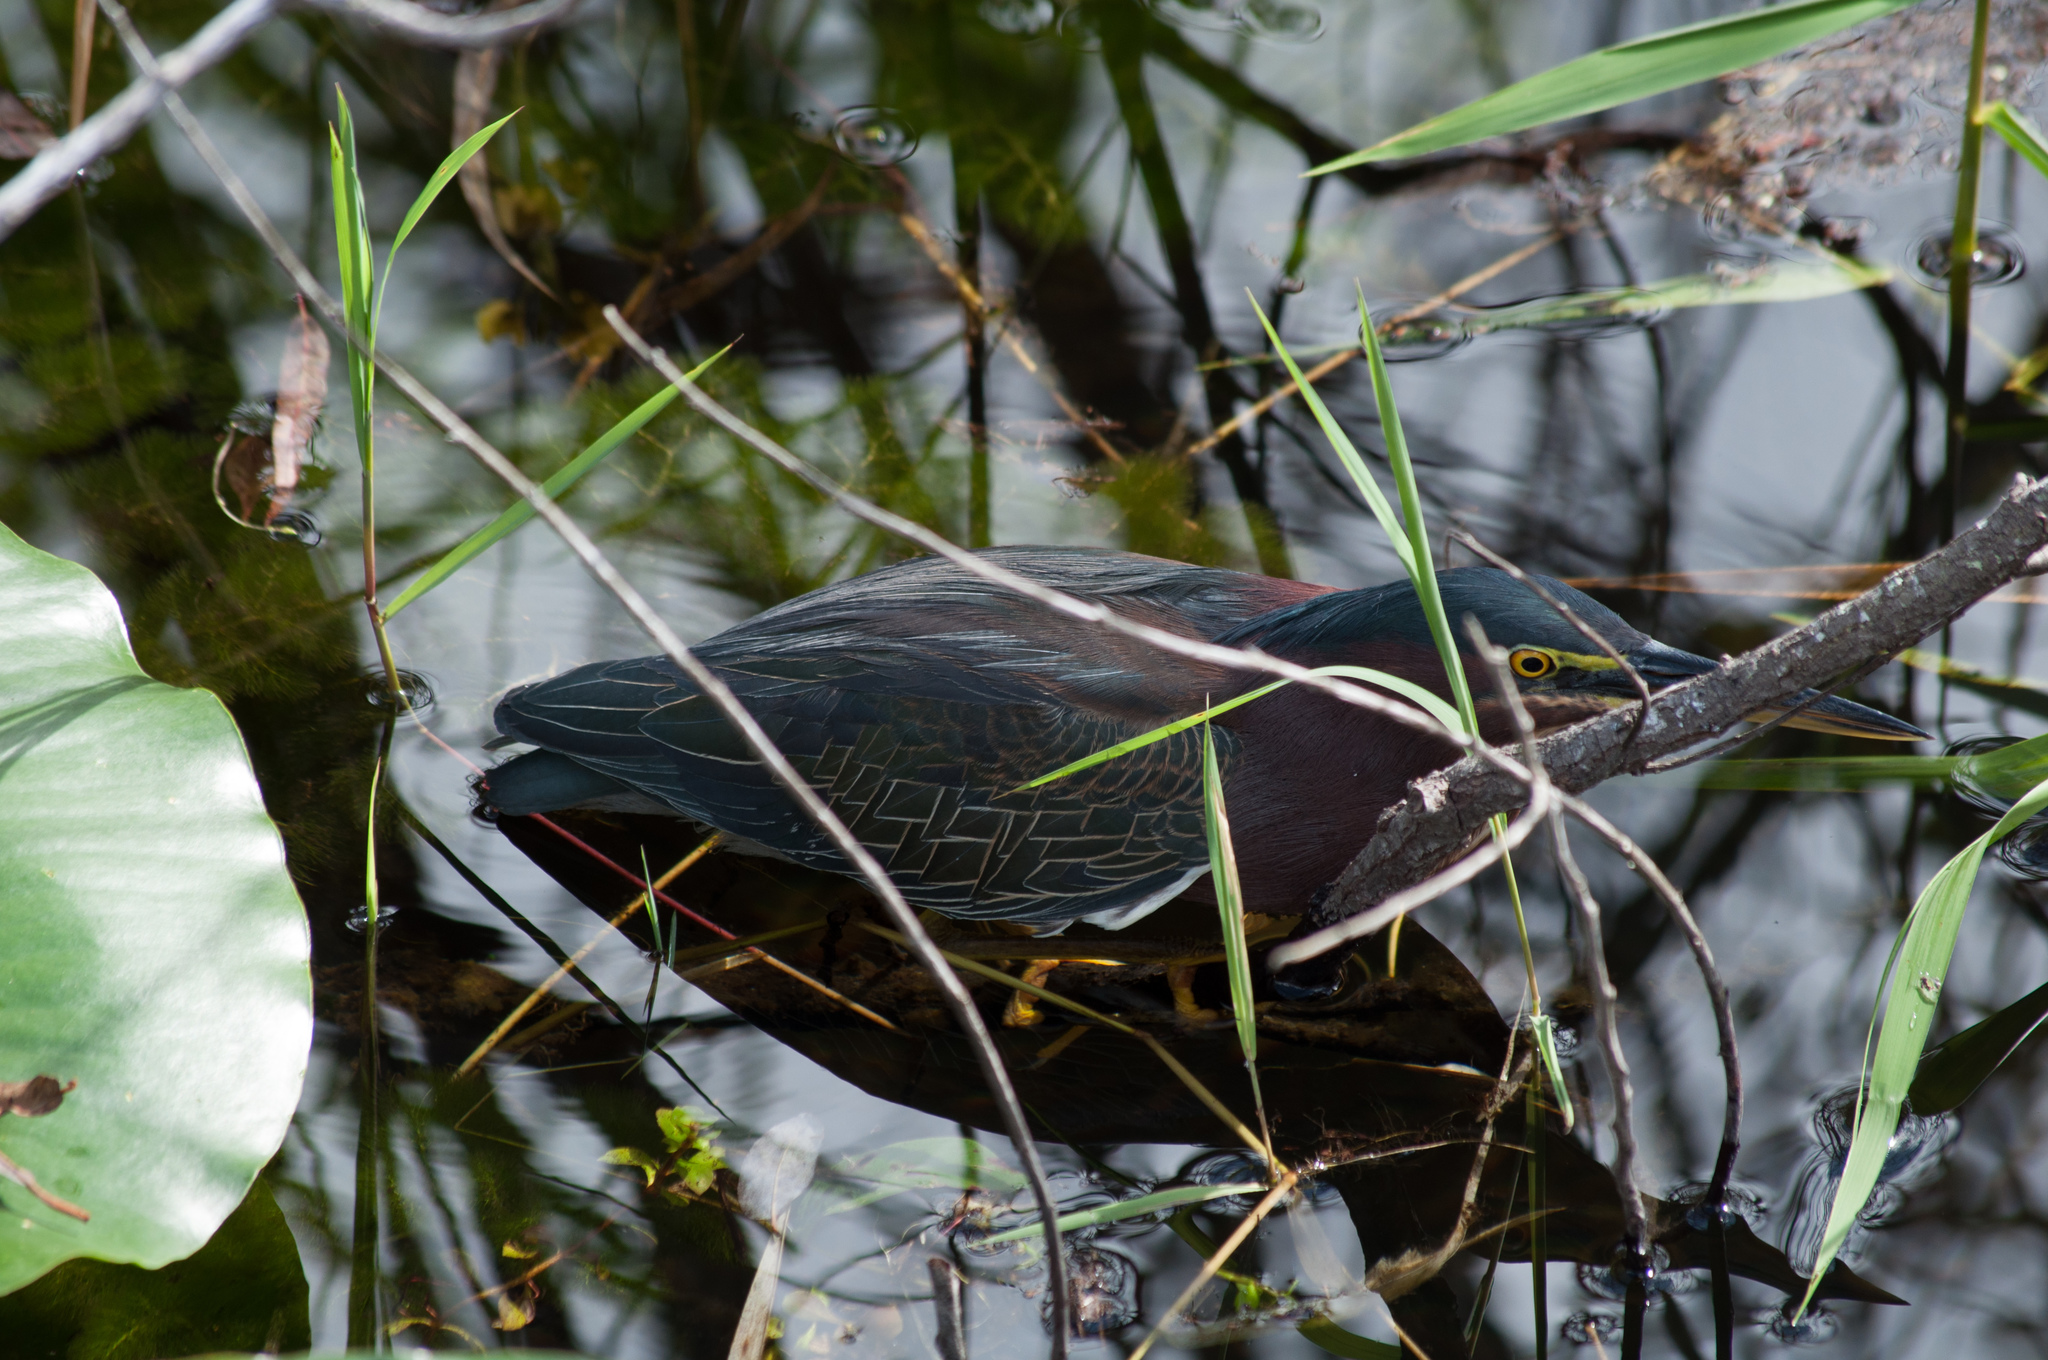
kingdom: Animalia
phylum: Chordata
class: Aves
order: Pelecaniformes
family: Ardeidae
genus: Butorides
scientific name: Butorides virescens
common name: Green heron
